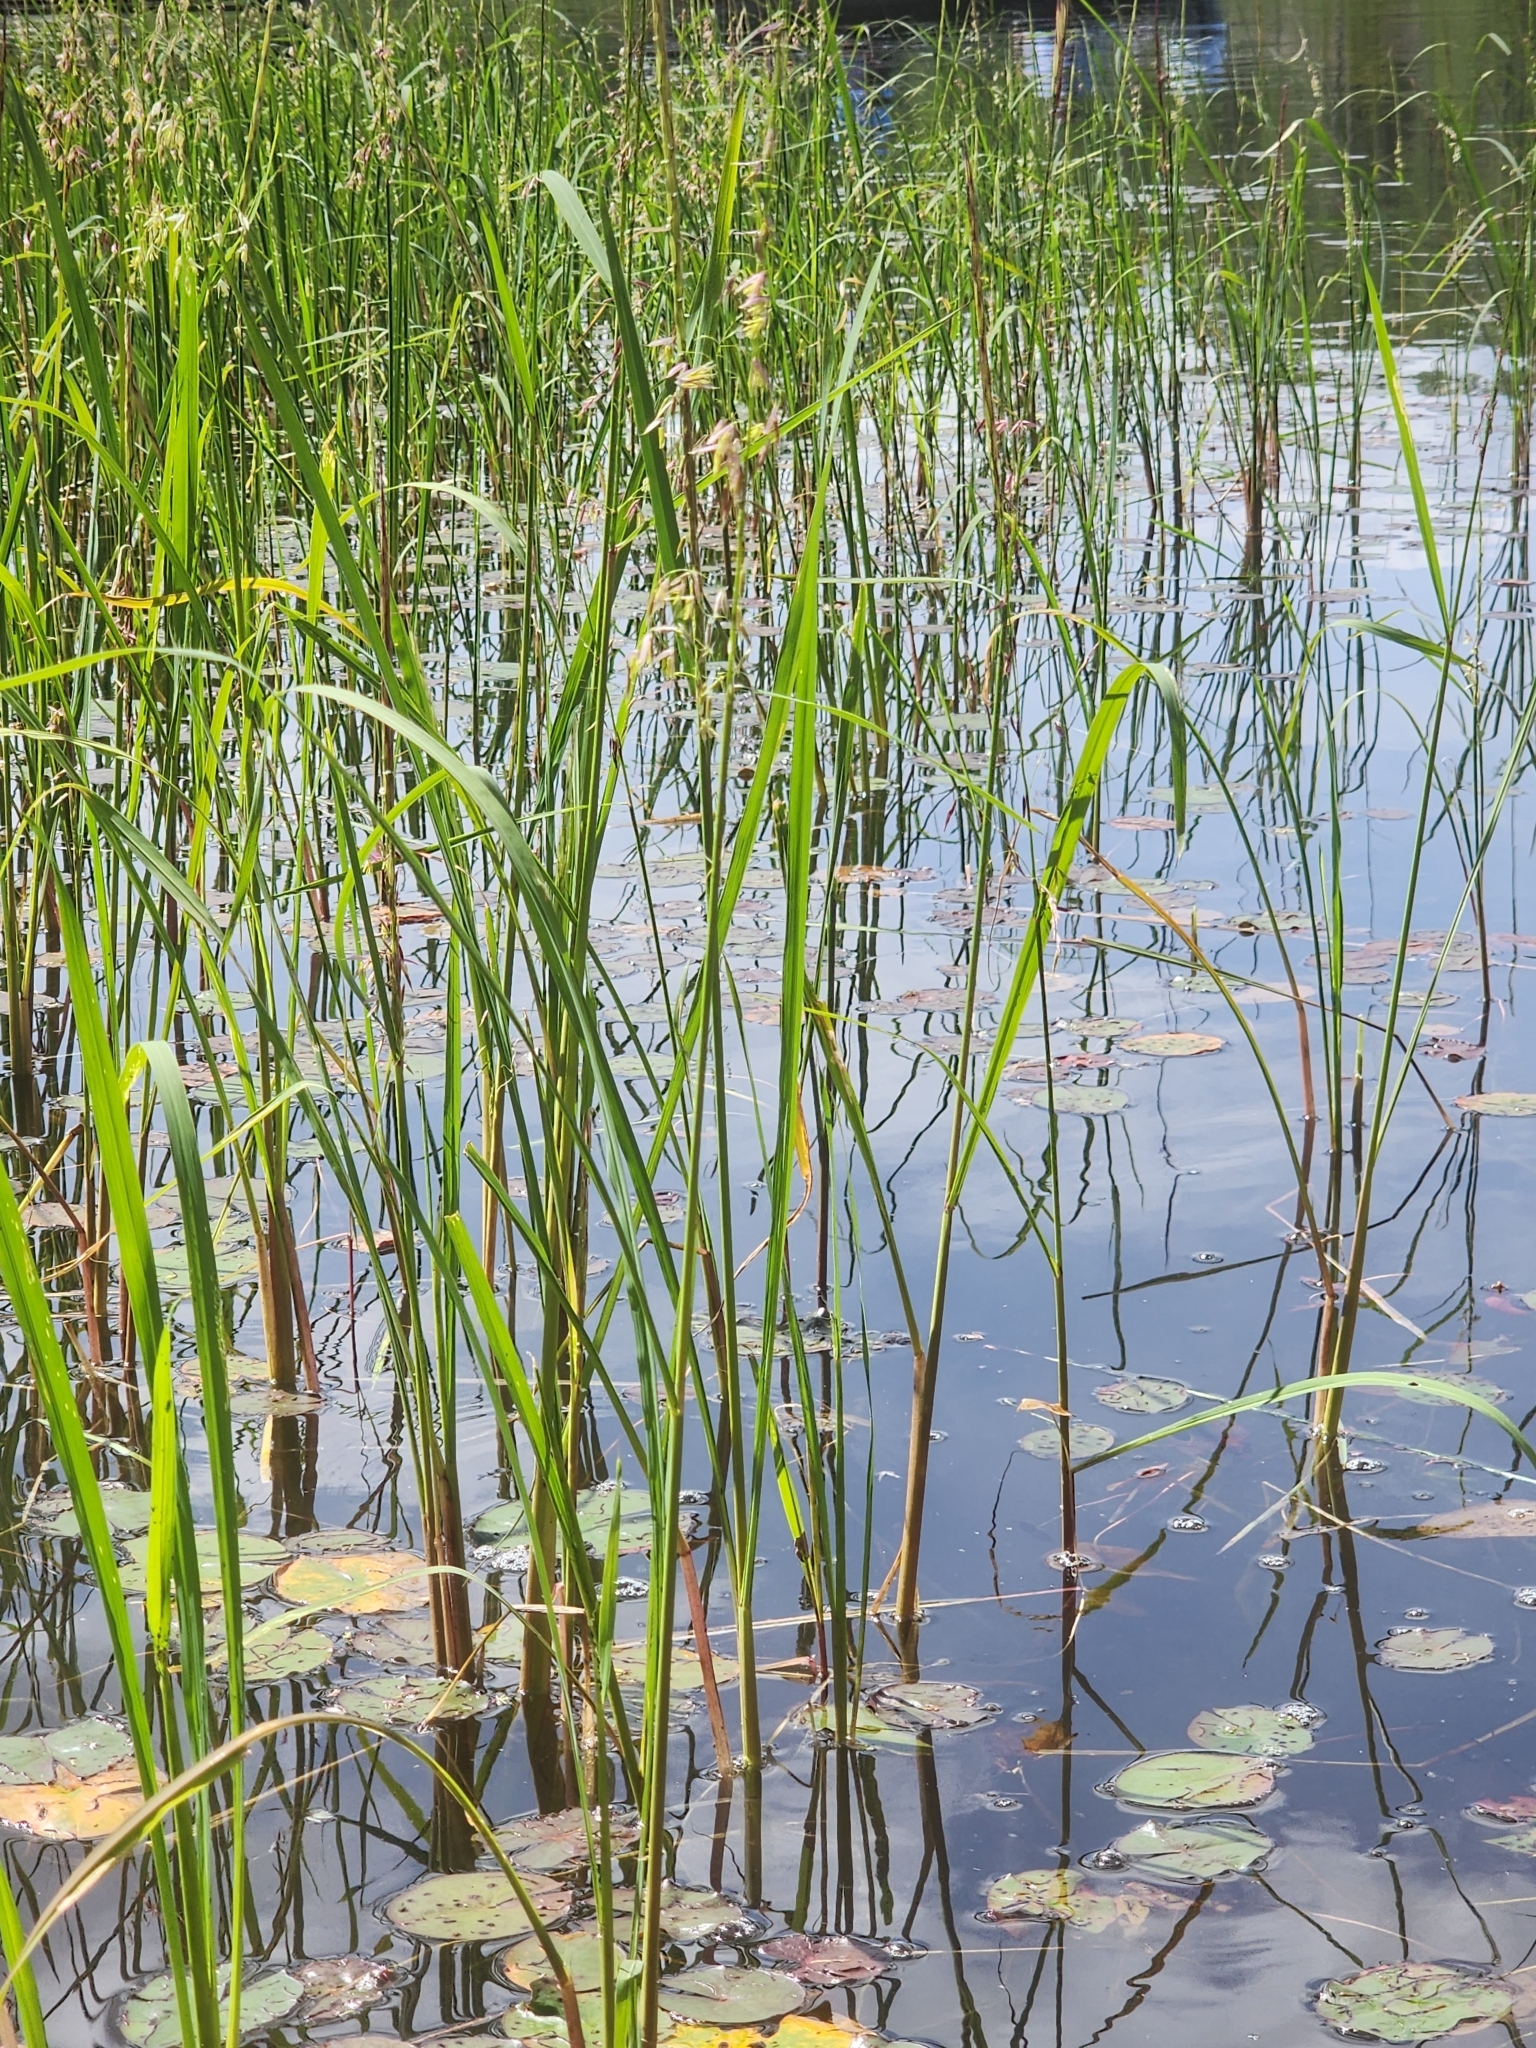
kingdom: Plantae
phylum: Tracheophyta
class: Liliopsida
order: Poales
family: Poaceae
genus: Zizania
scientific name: Zizania palustris
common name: Northern wild rice
